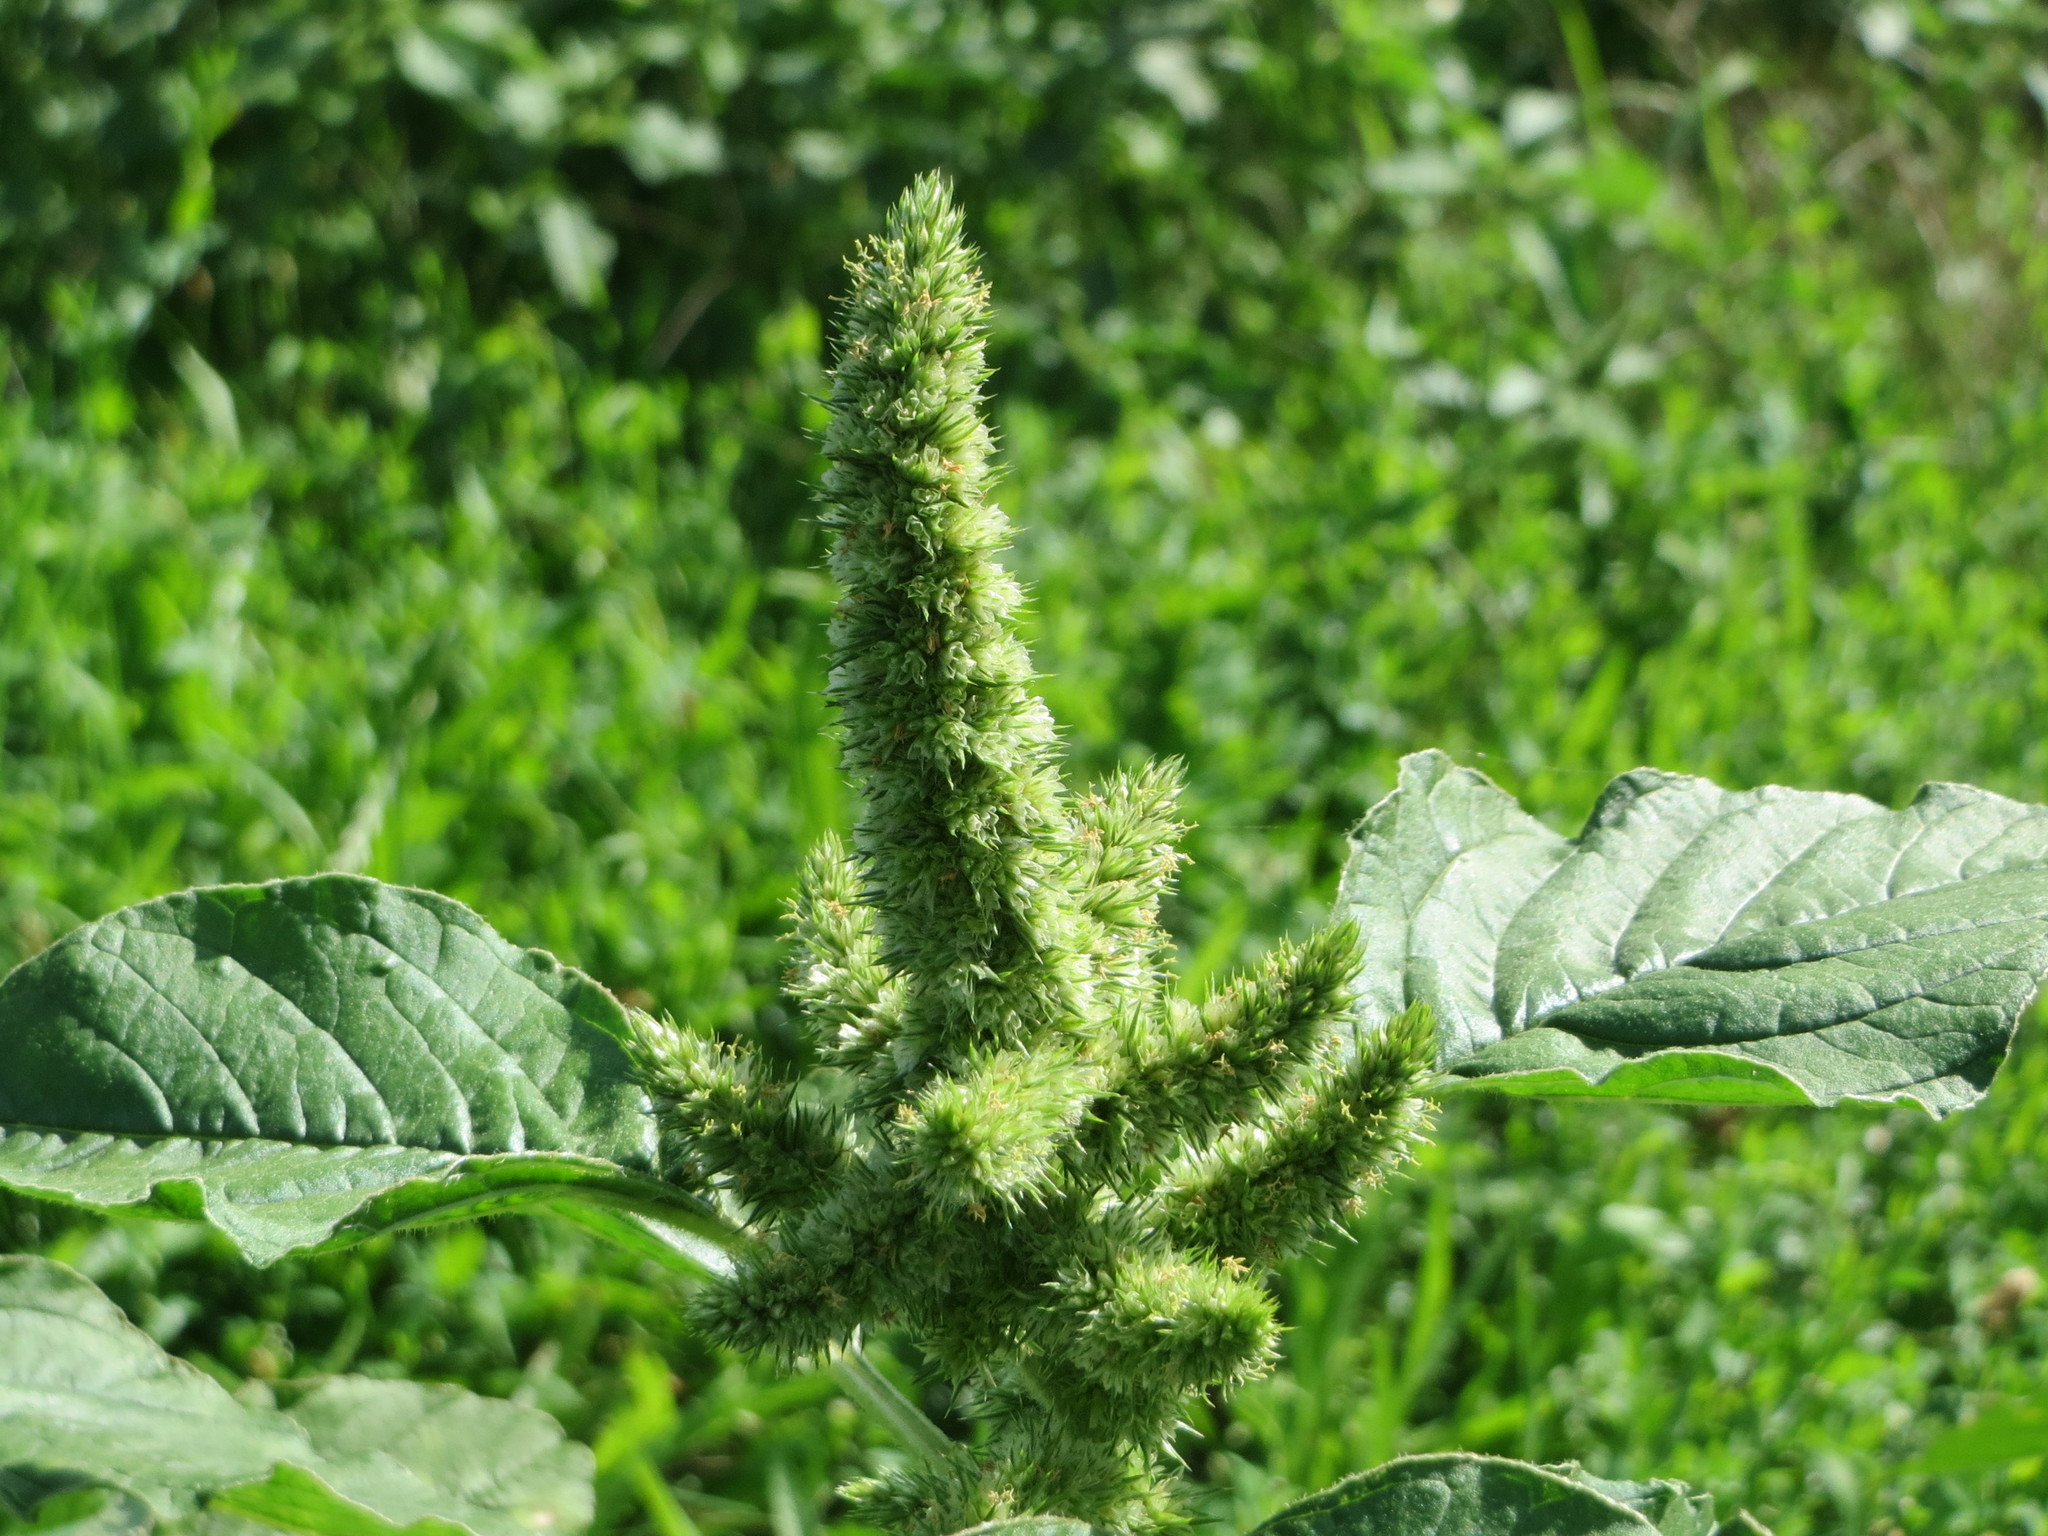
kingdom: Plantae
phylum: Tracheophyta
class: Magnoliopsida
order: Caryophyllales
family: Amaranthaceae
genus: Amaranthus
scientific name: Amaranthus retroflexus
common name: Redroot amaranth
